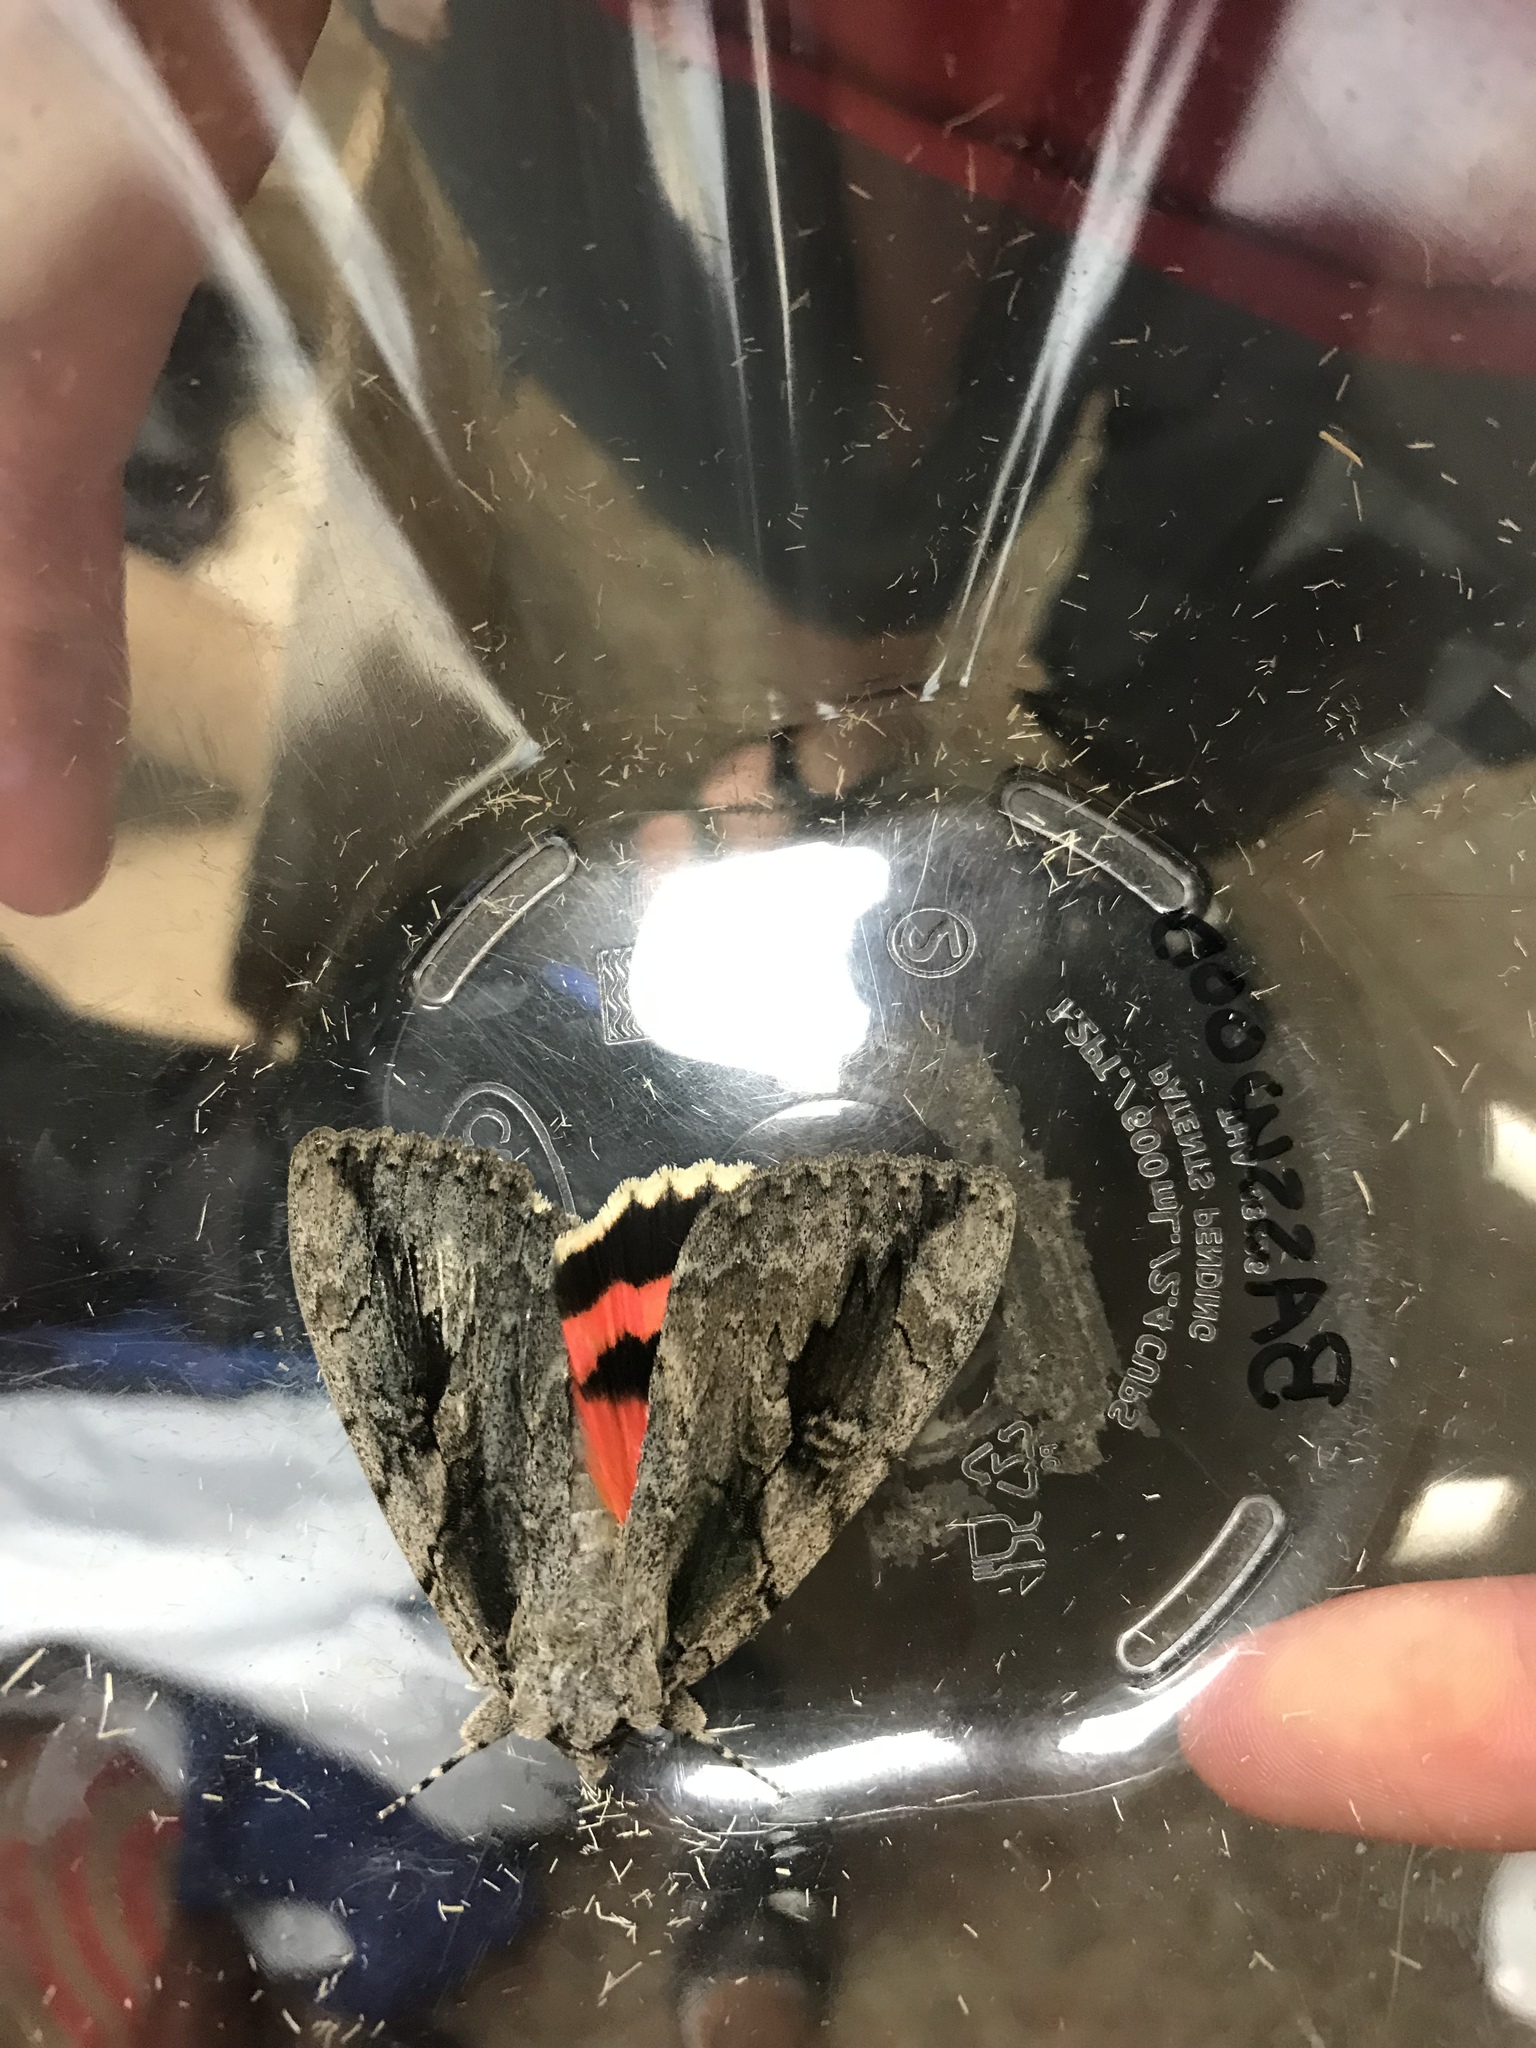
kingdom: Animalia
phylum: Arthropoda
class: Insecta
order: Lepidoptera
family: Erebidae
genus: Catocala
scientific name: Catocala amatrix
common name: Sweetheart underwing
